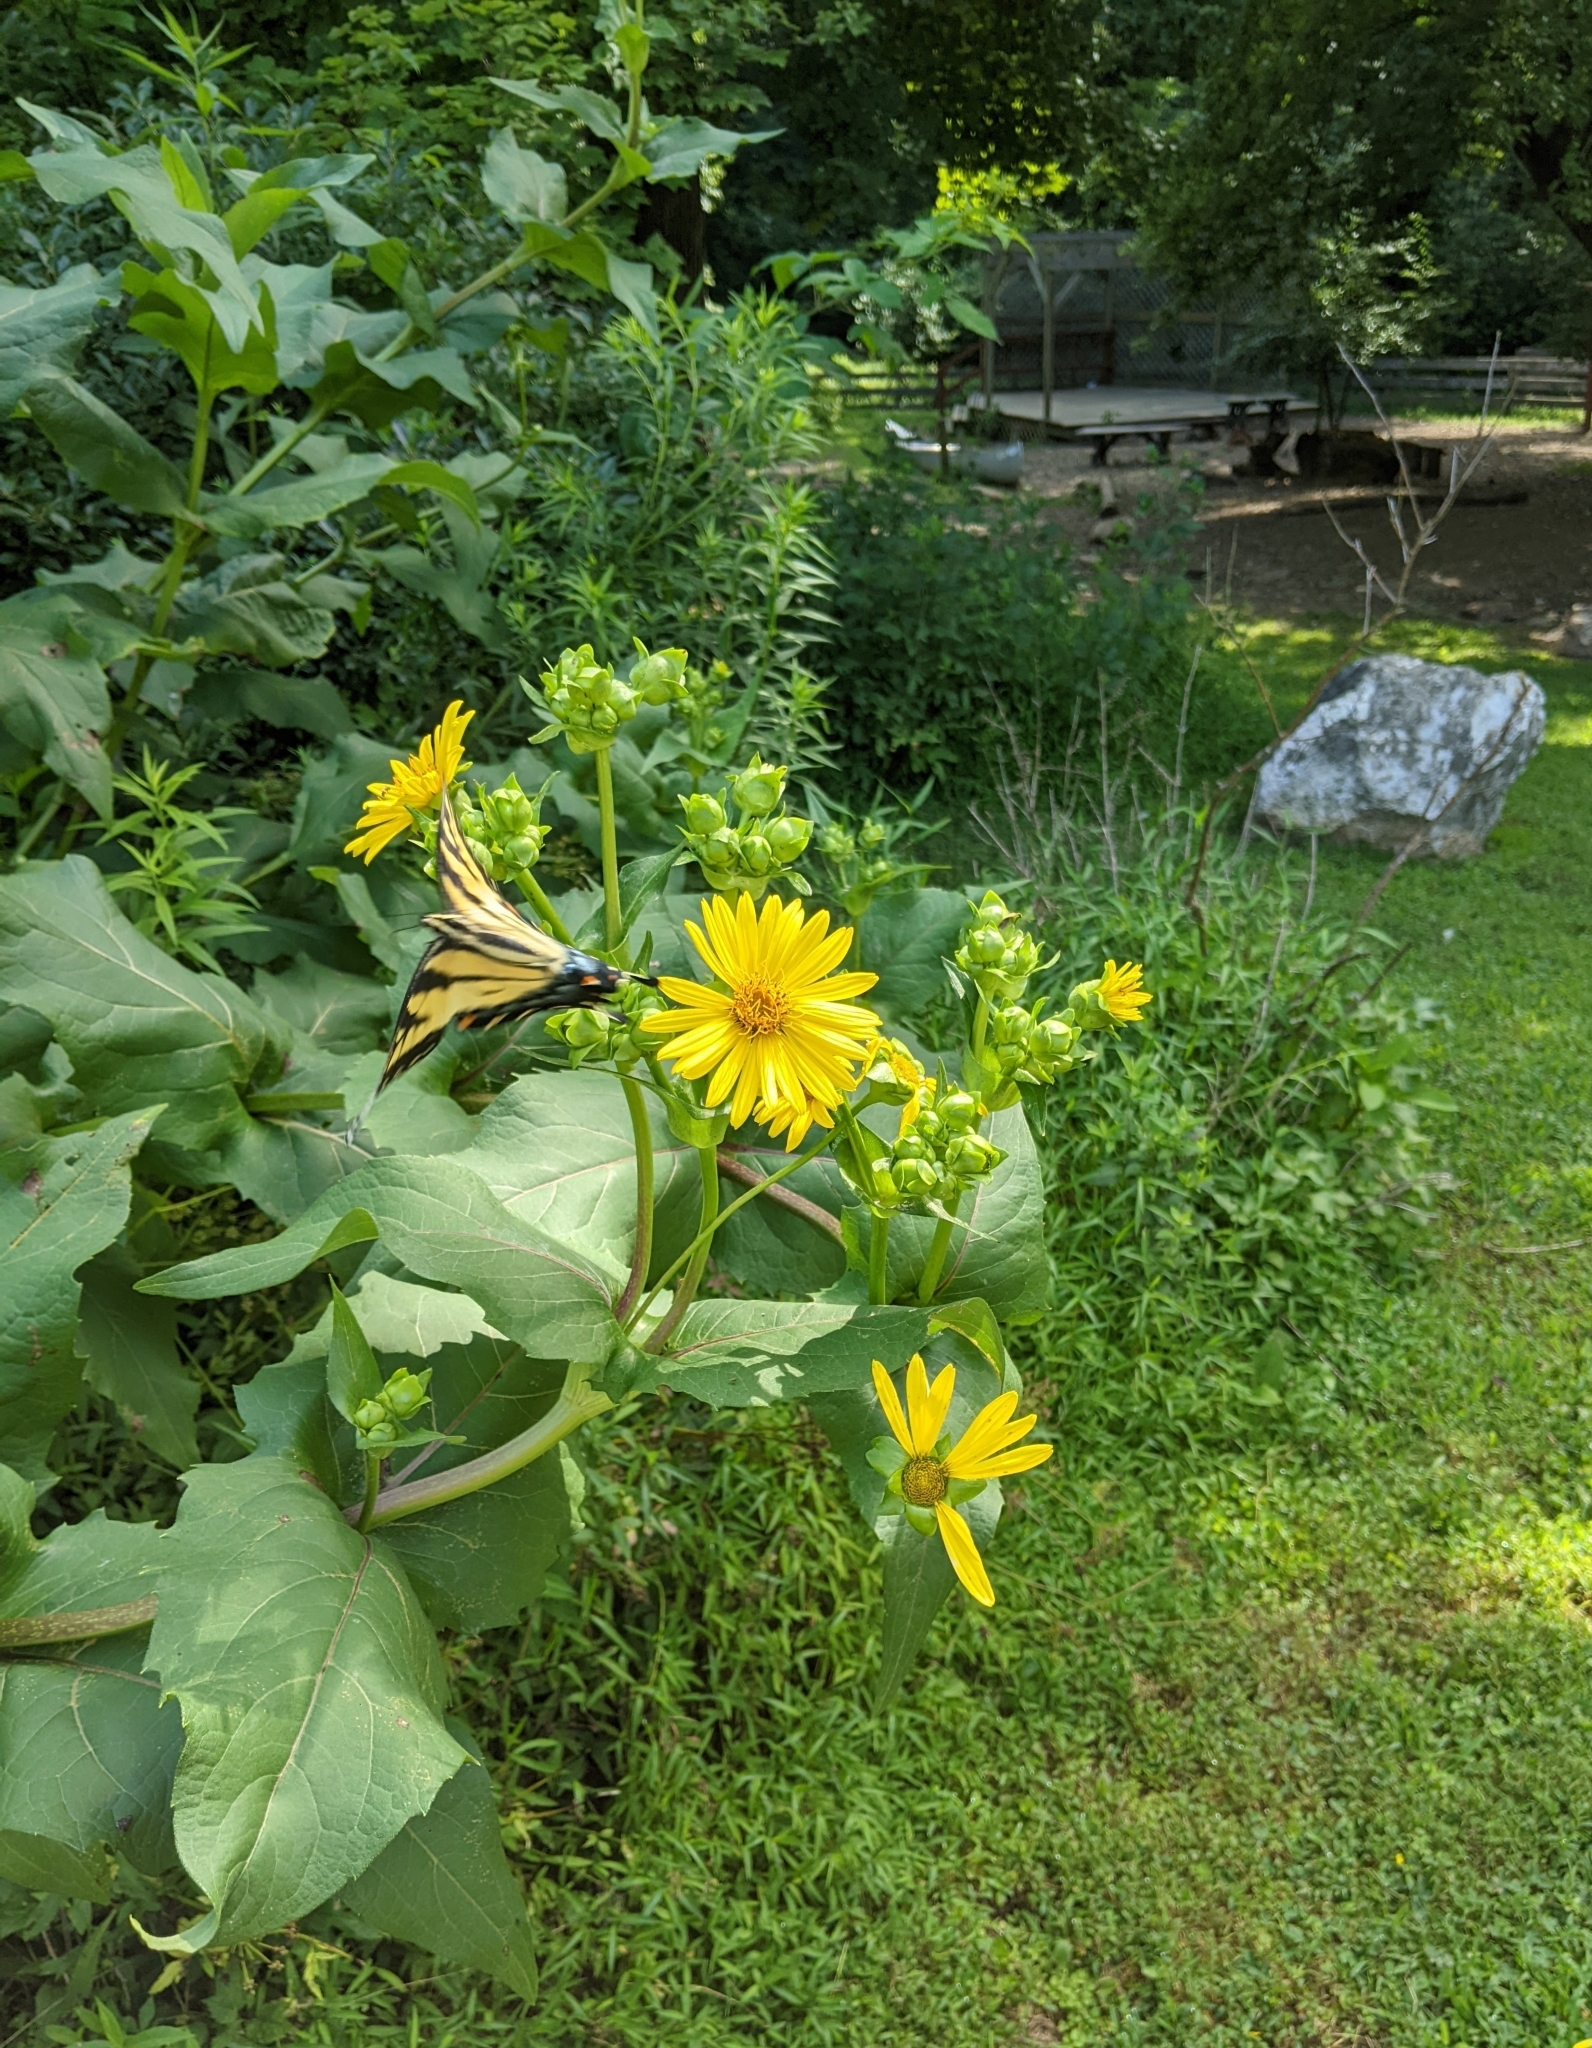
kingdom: Animalia
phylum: Arthropoda
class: Insecta
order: Lepidoptera
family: Papilionidae
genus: Papilio
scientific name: Papilio glaucus
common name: Tiger swallowtail
